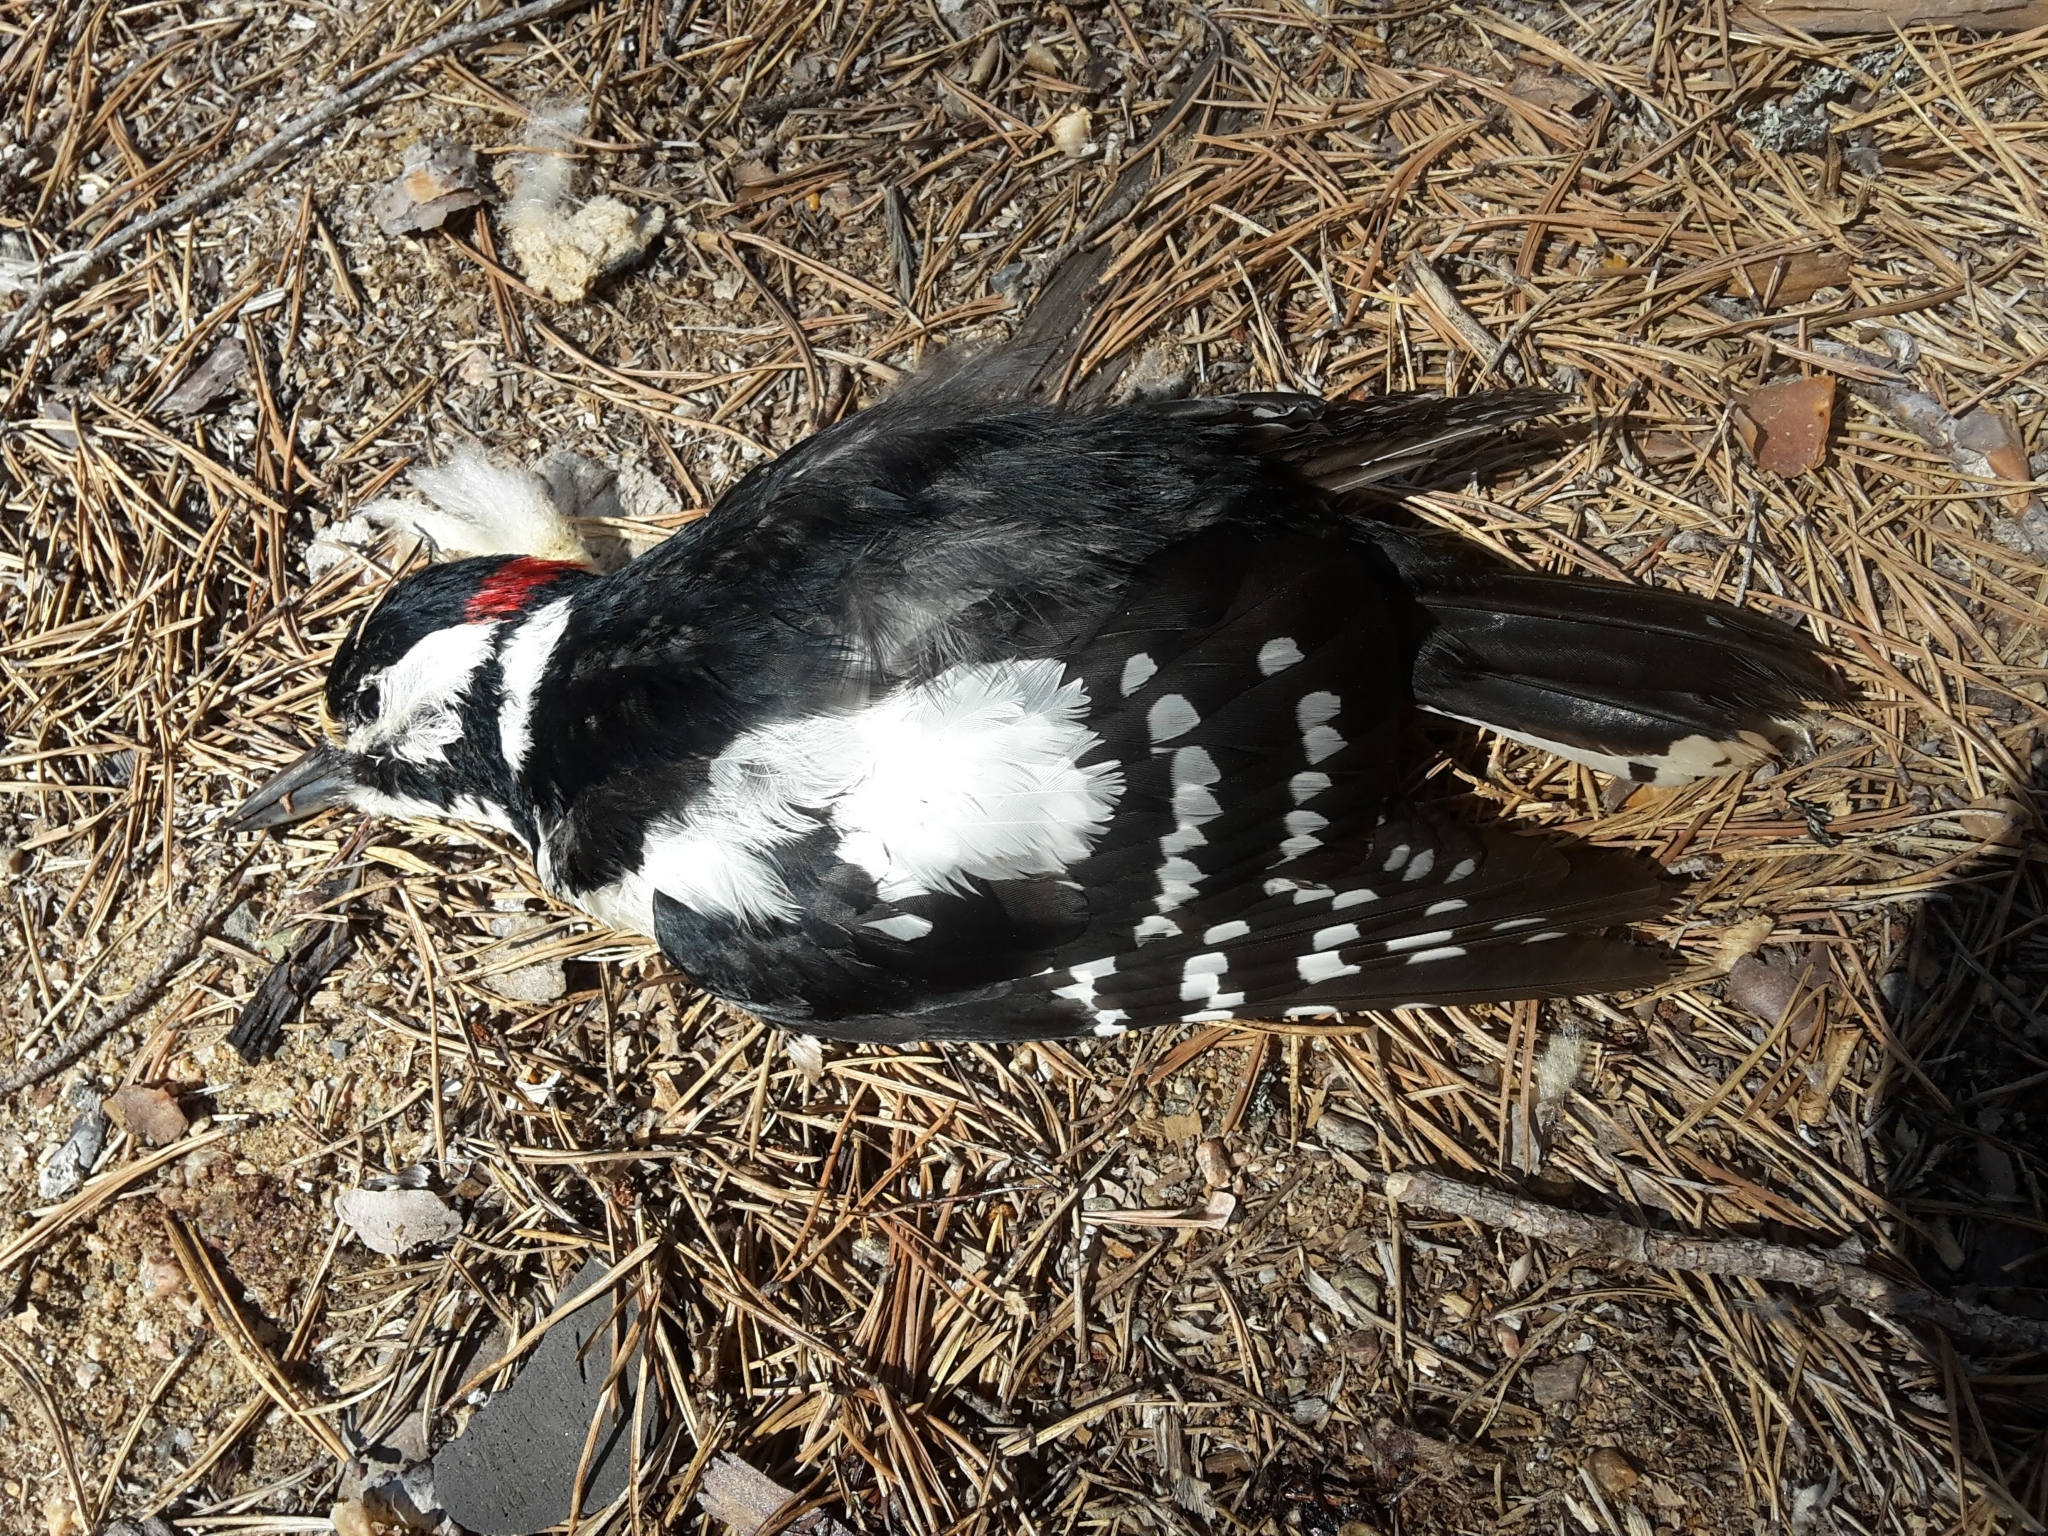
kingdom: Animalia
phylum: Chordata
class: Aves
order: Piciformes
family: Picidae
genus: Dendrocopos
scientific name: Dendrocopos major
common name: Great spotted woodpecker
